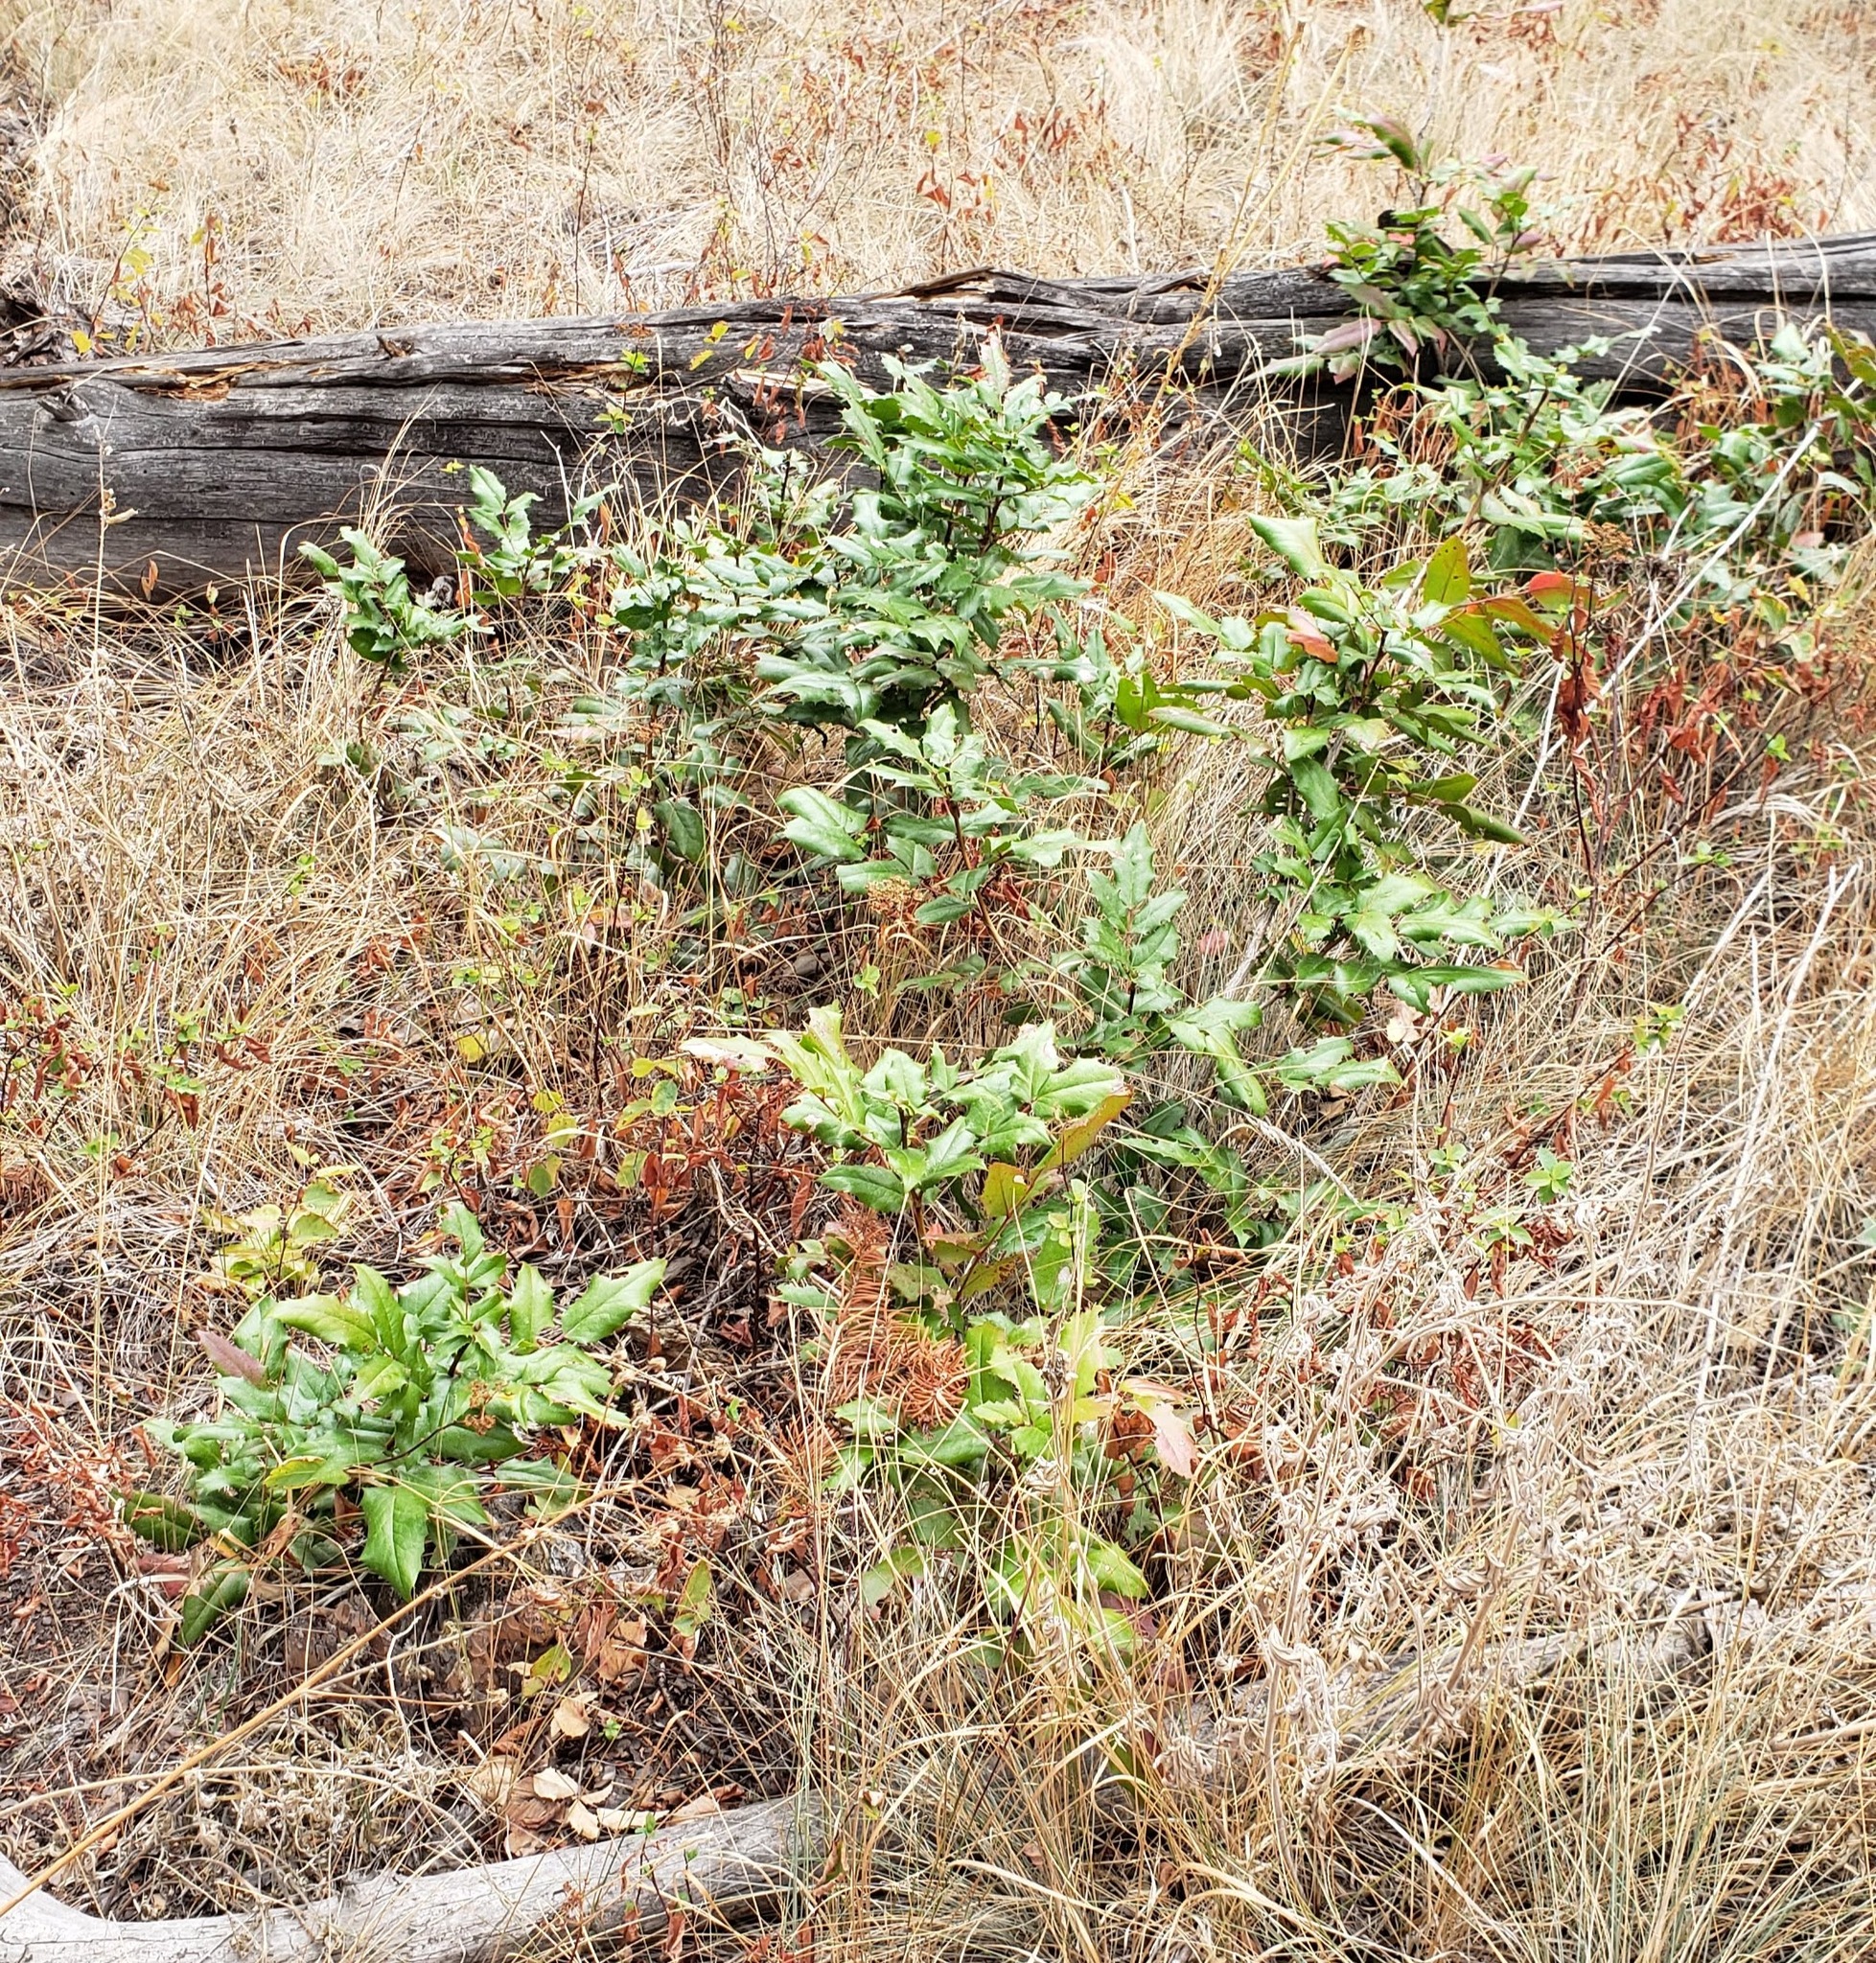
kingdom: Plantae
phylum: Tracheophyta
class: Magnoliopsida
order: Ranunculales
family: Berberidaceae
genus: Mahonia
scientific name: Mahonia aquifolium
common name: Oregon-grape
